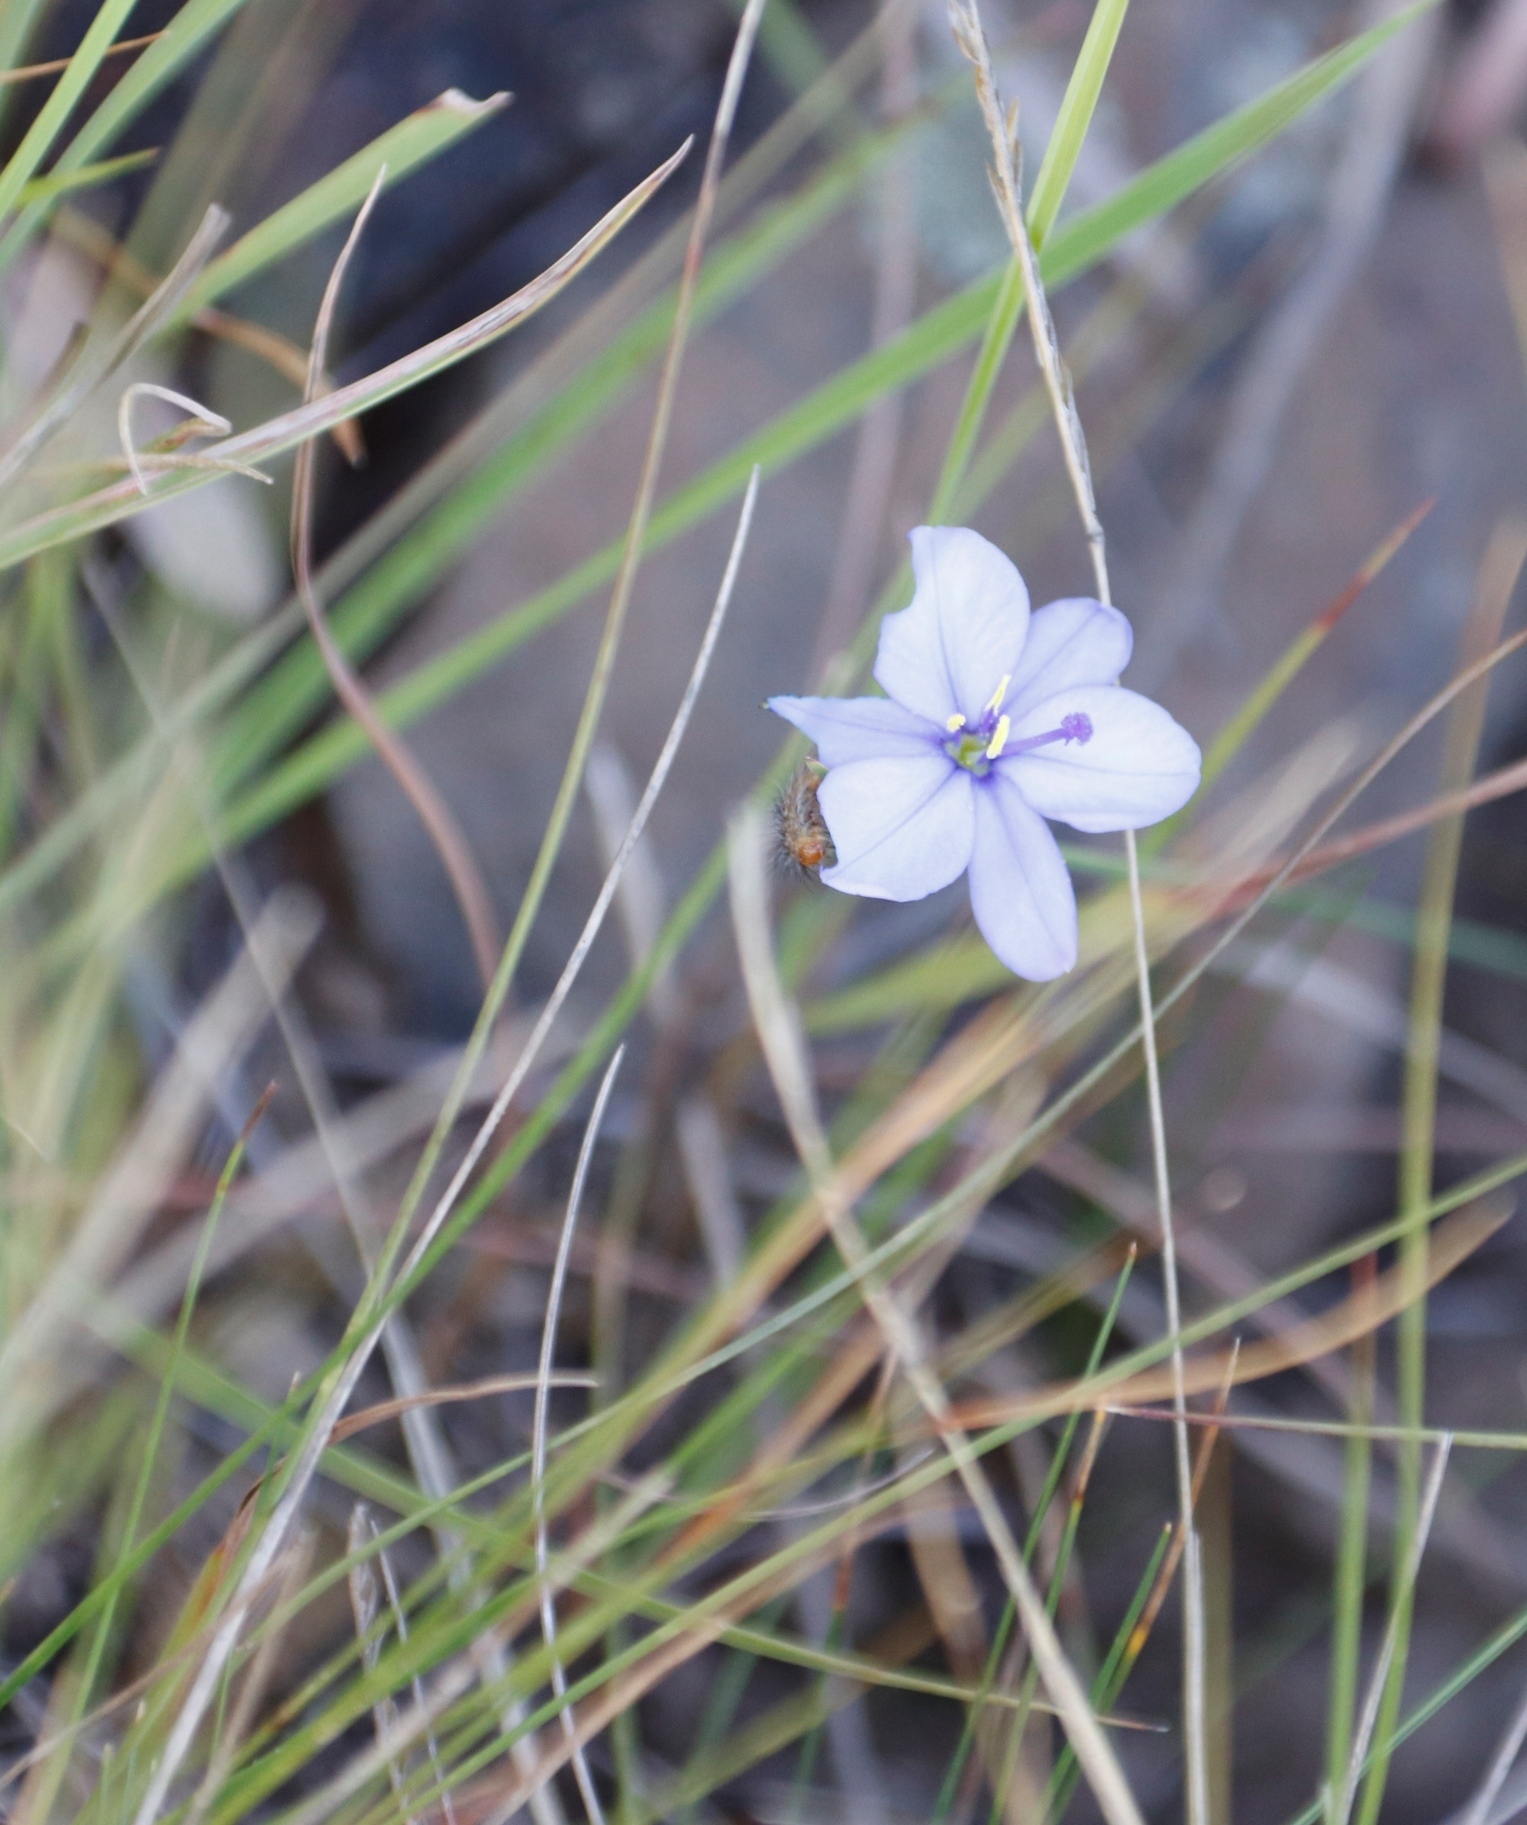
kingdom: Plantae
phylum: Tracheophyta
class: Liliopsida
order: Asparagales
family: Iridaceae
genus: Aristea
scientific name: Aristea abyssinica
